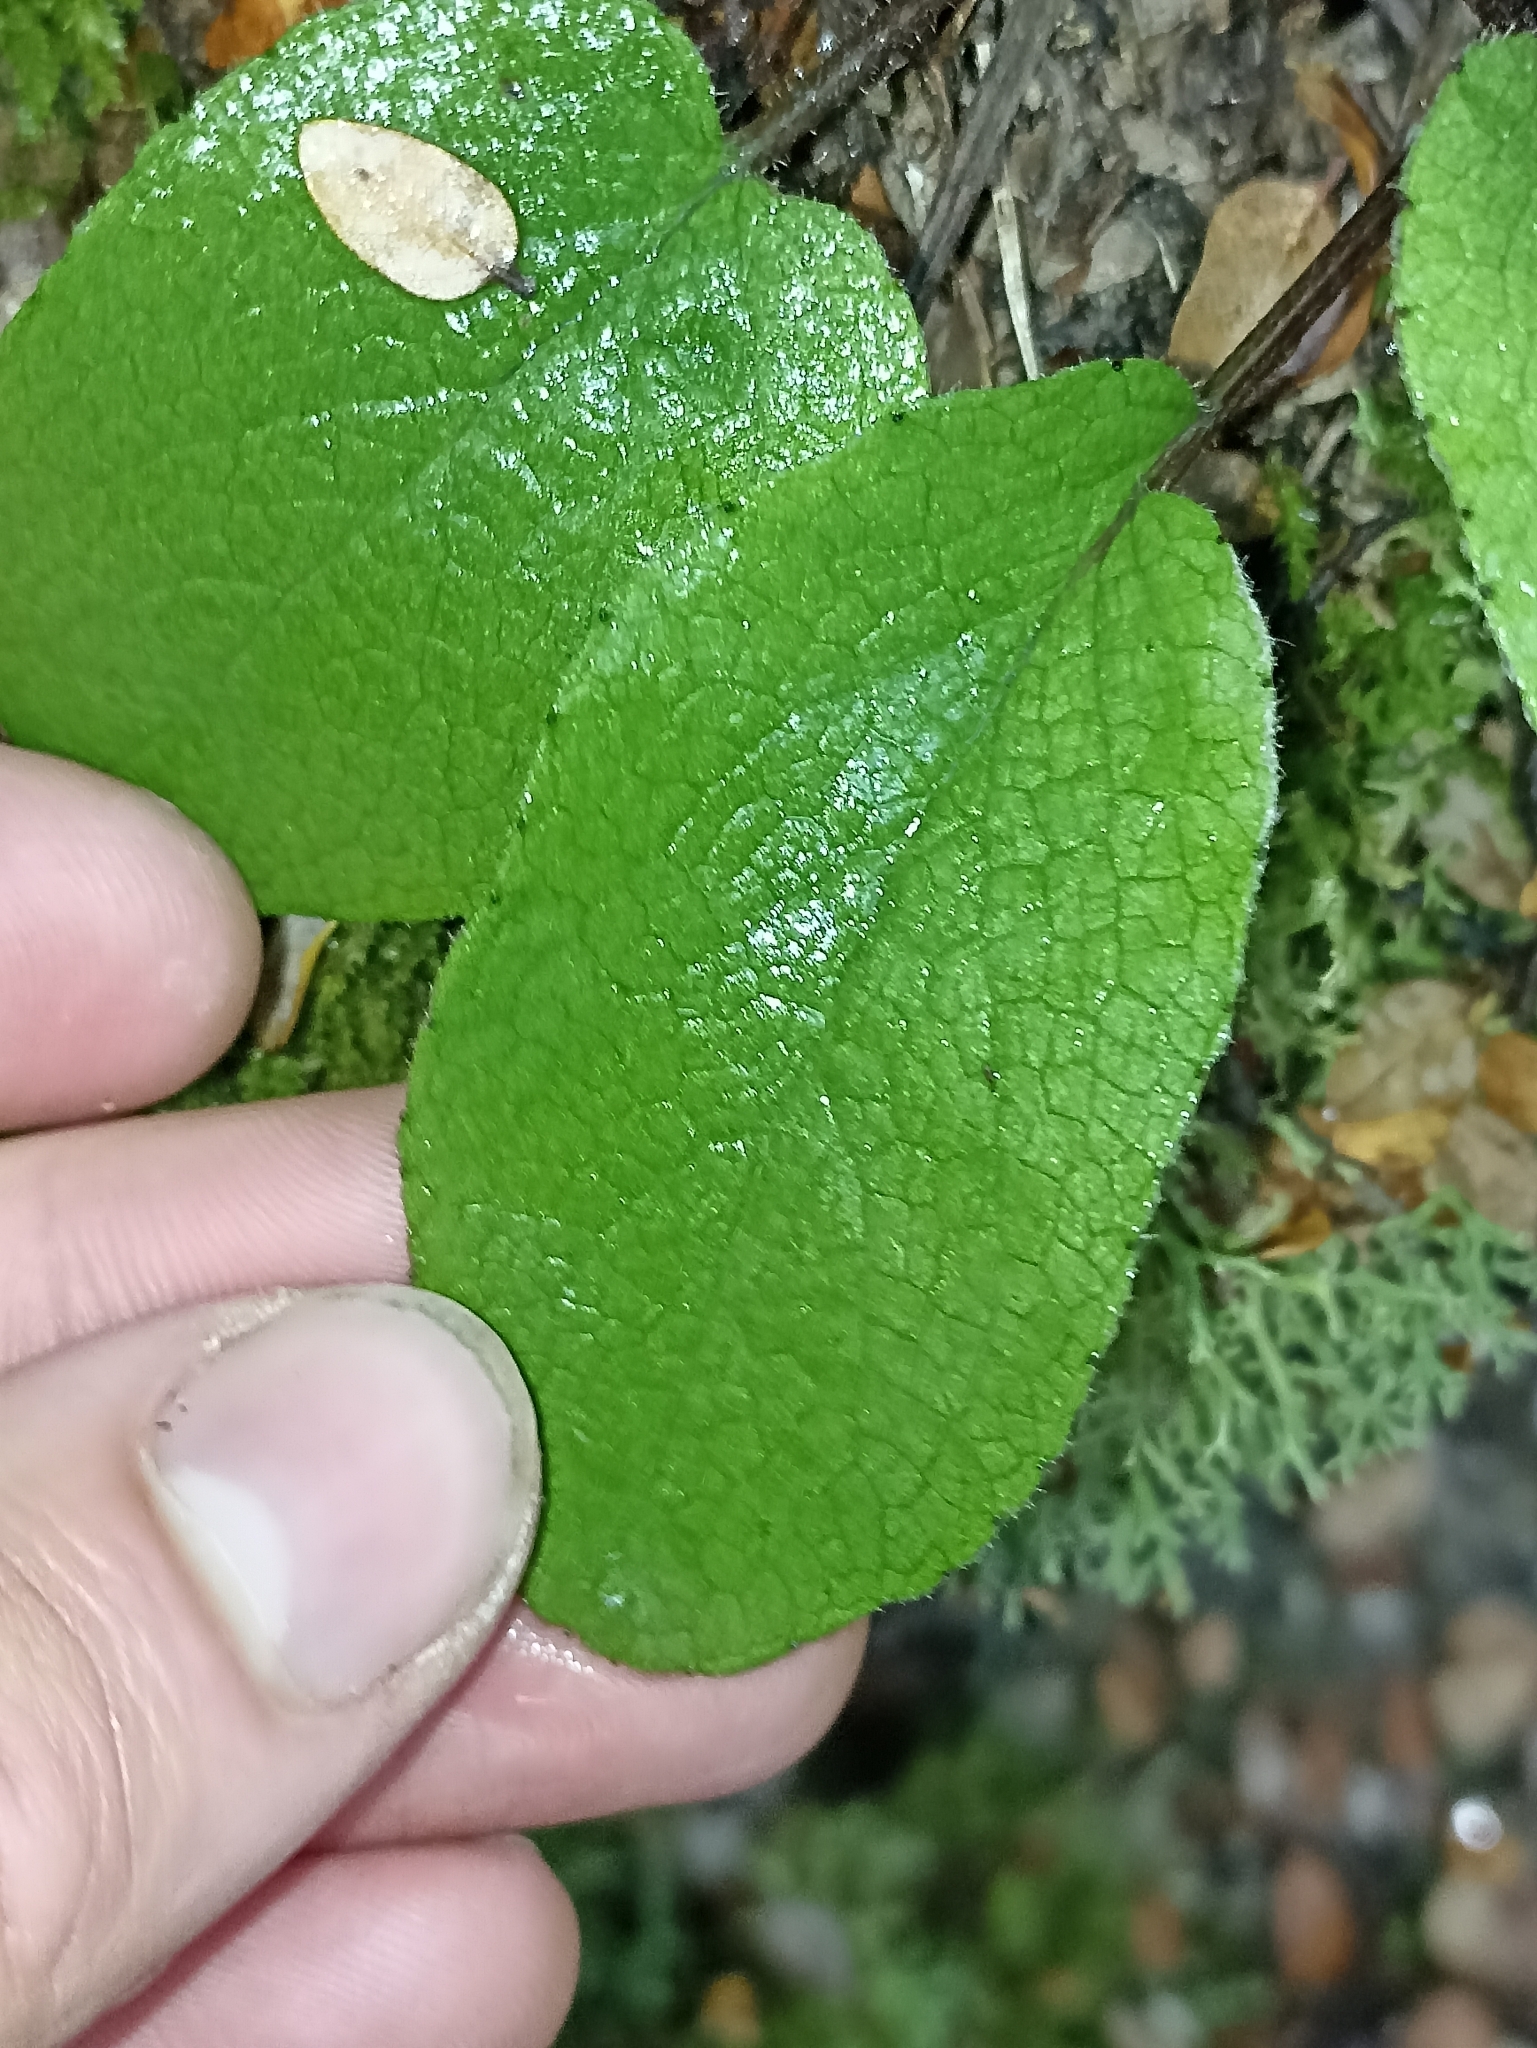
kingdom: Plantae
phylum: Tracheophyta
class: Magnoliopsida
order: Asterales
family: Asteraceae
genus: Brachyglottis
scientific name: Brachyglottis southlandica
